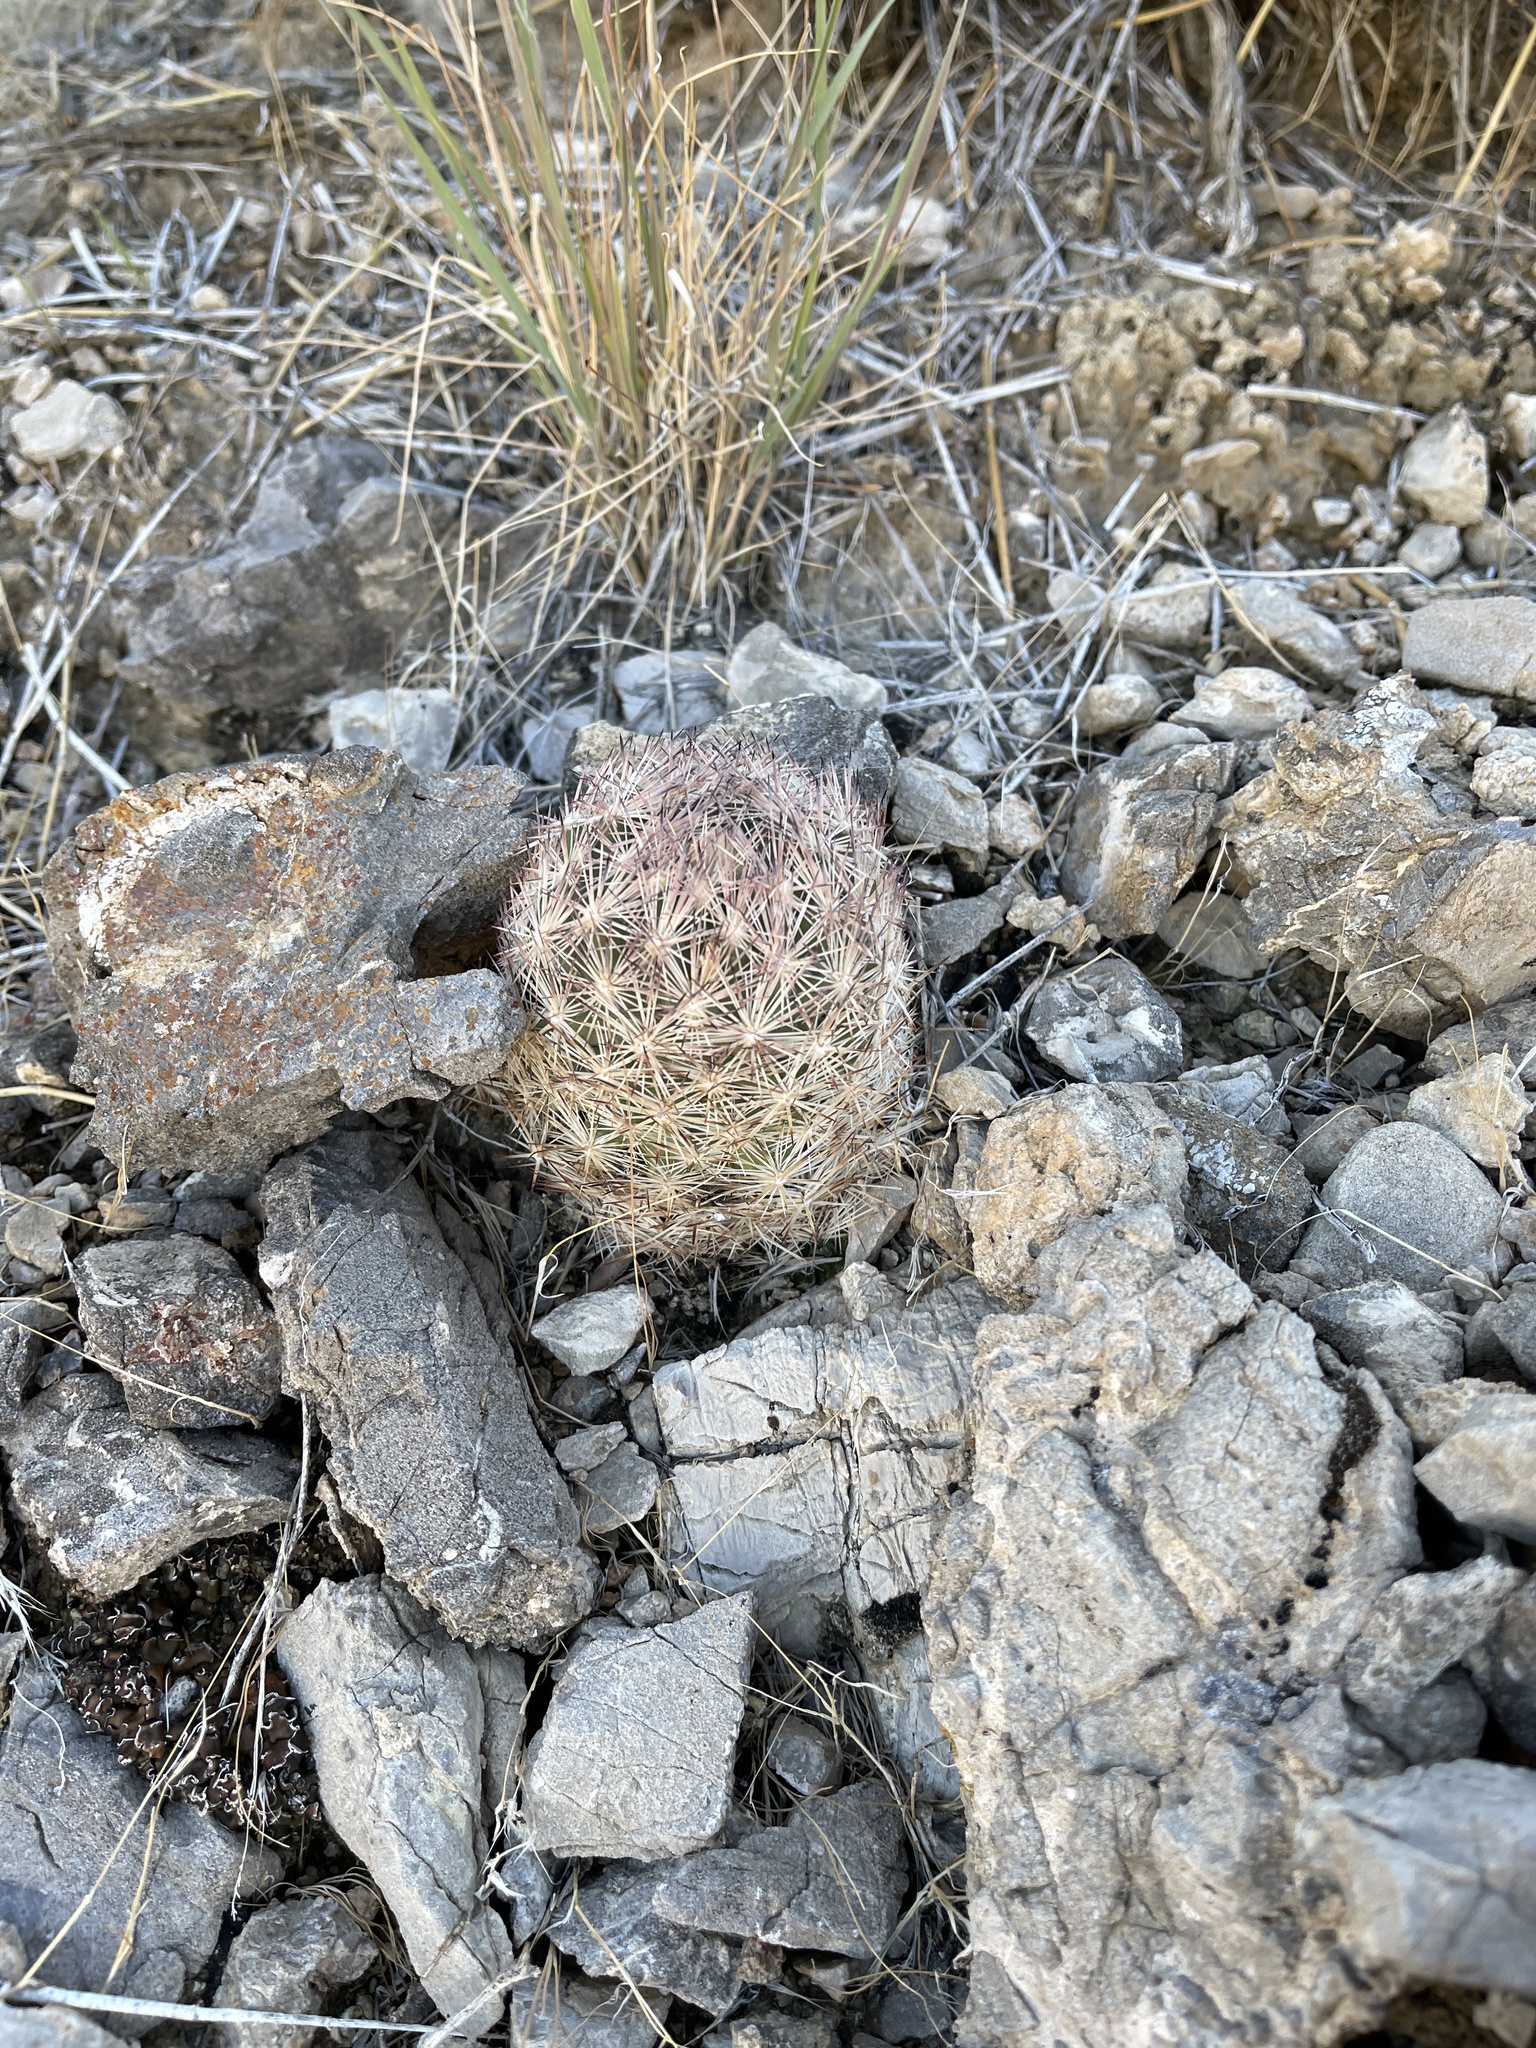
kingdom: Plantae
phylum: Tracheophyta
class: Magnoliopsida
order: Caryophyllales
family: Cactaceae
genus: Pelecyphora
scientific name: Pelecyphora dasyacantha
